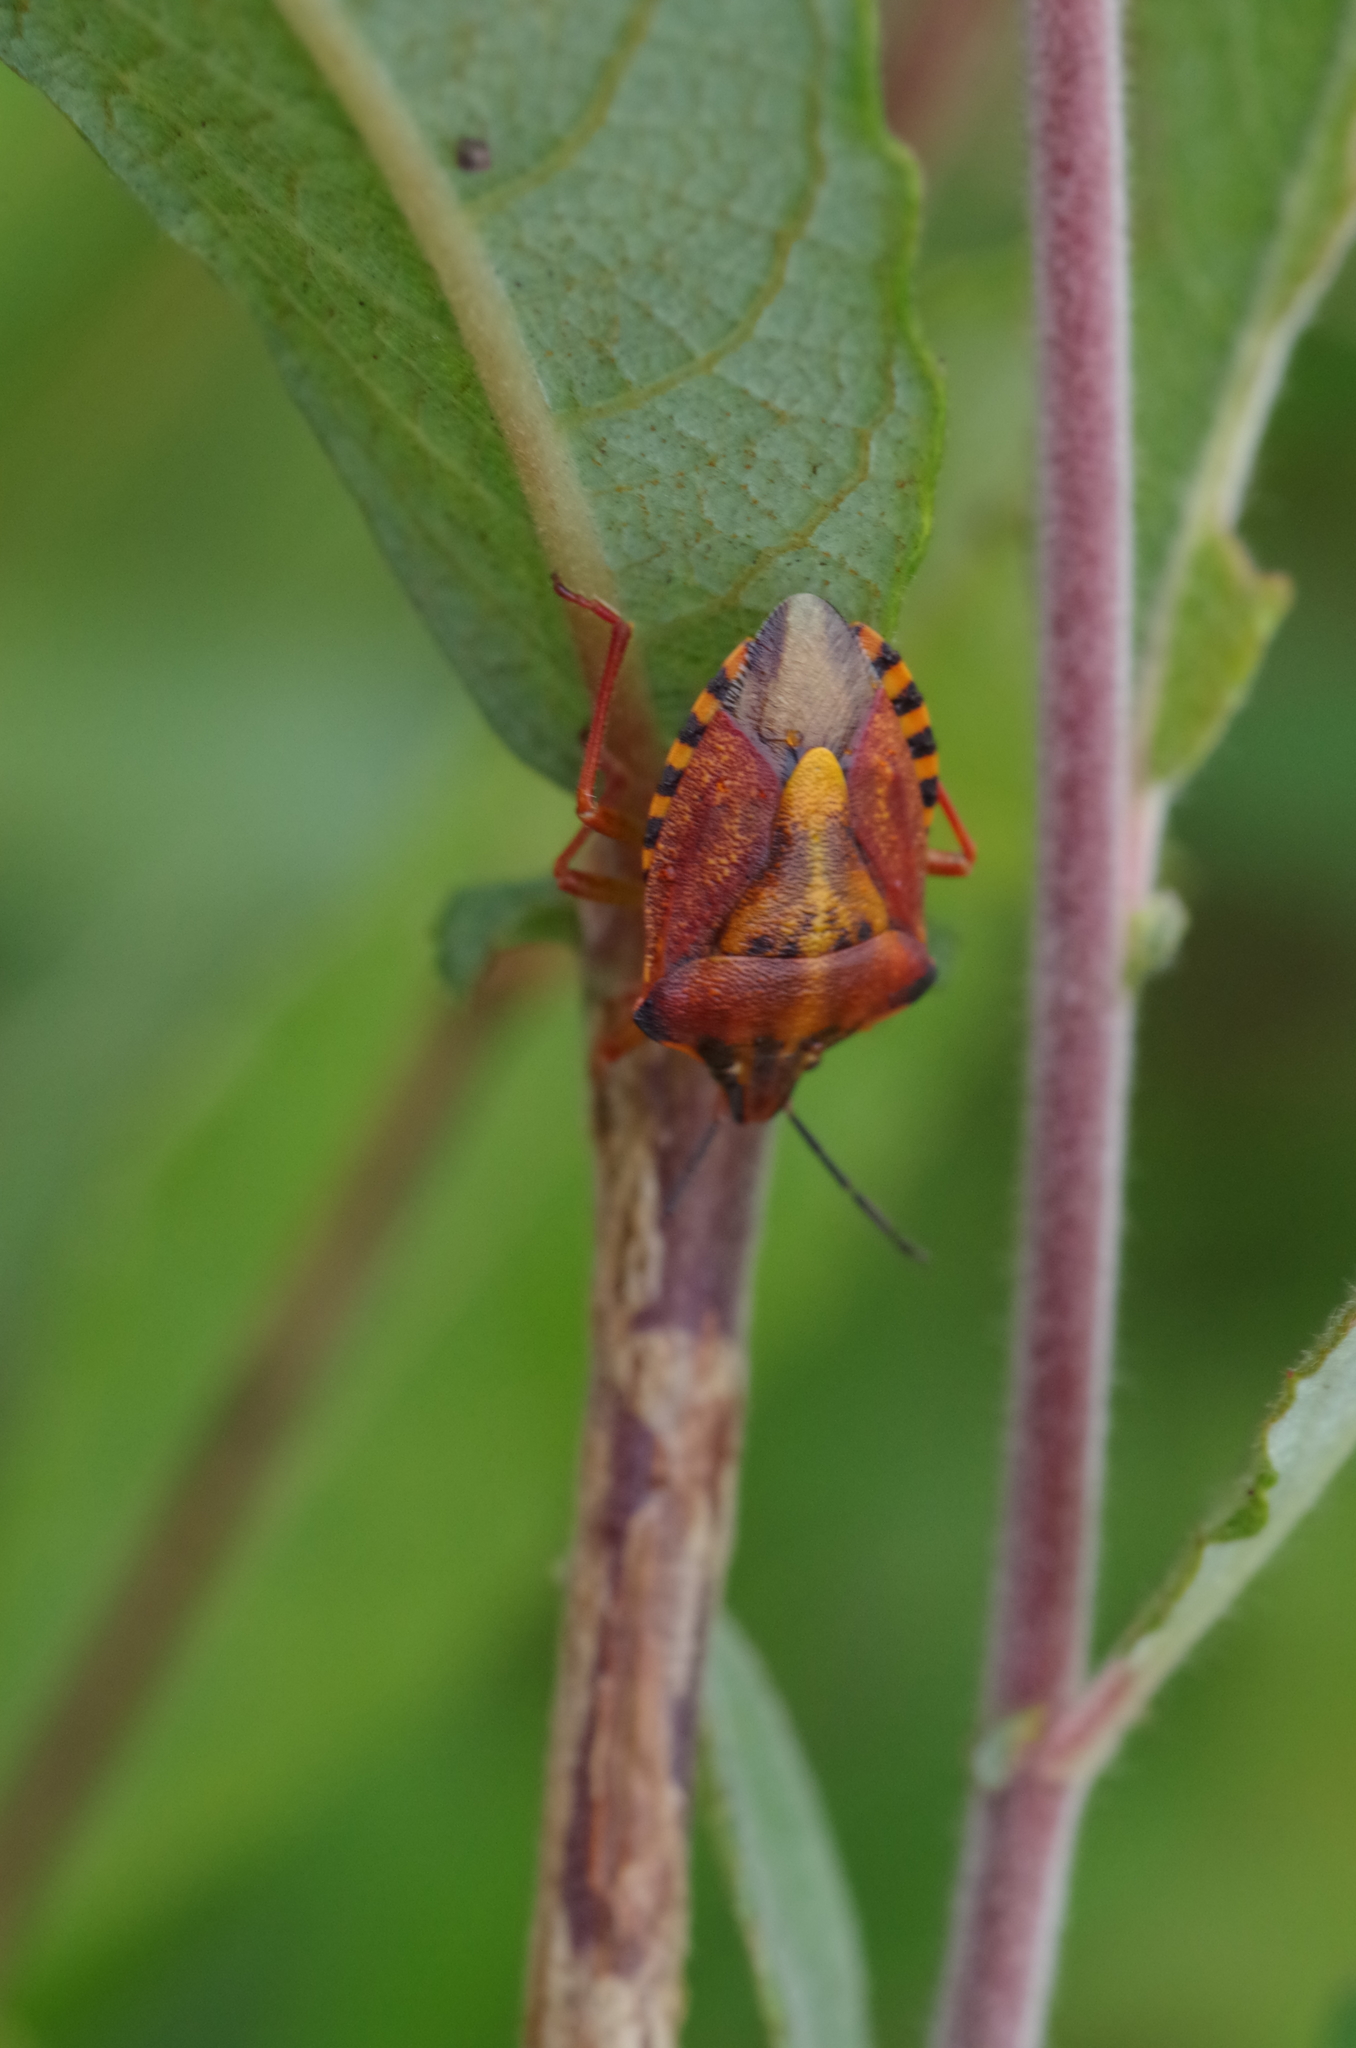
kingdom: Animalia
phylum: Arthropoda
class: Insecta
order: Hemiptera
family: Pentatomidae
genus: Carpocoris
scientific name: Carpocoris purpureipennis
